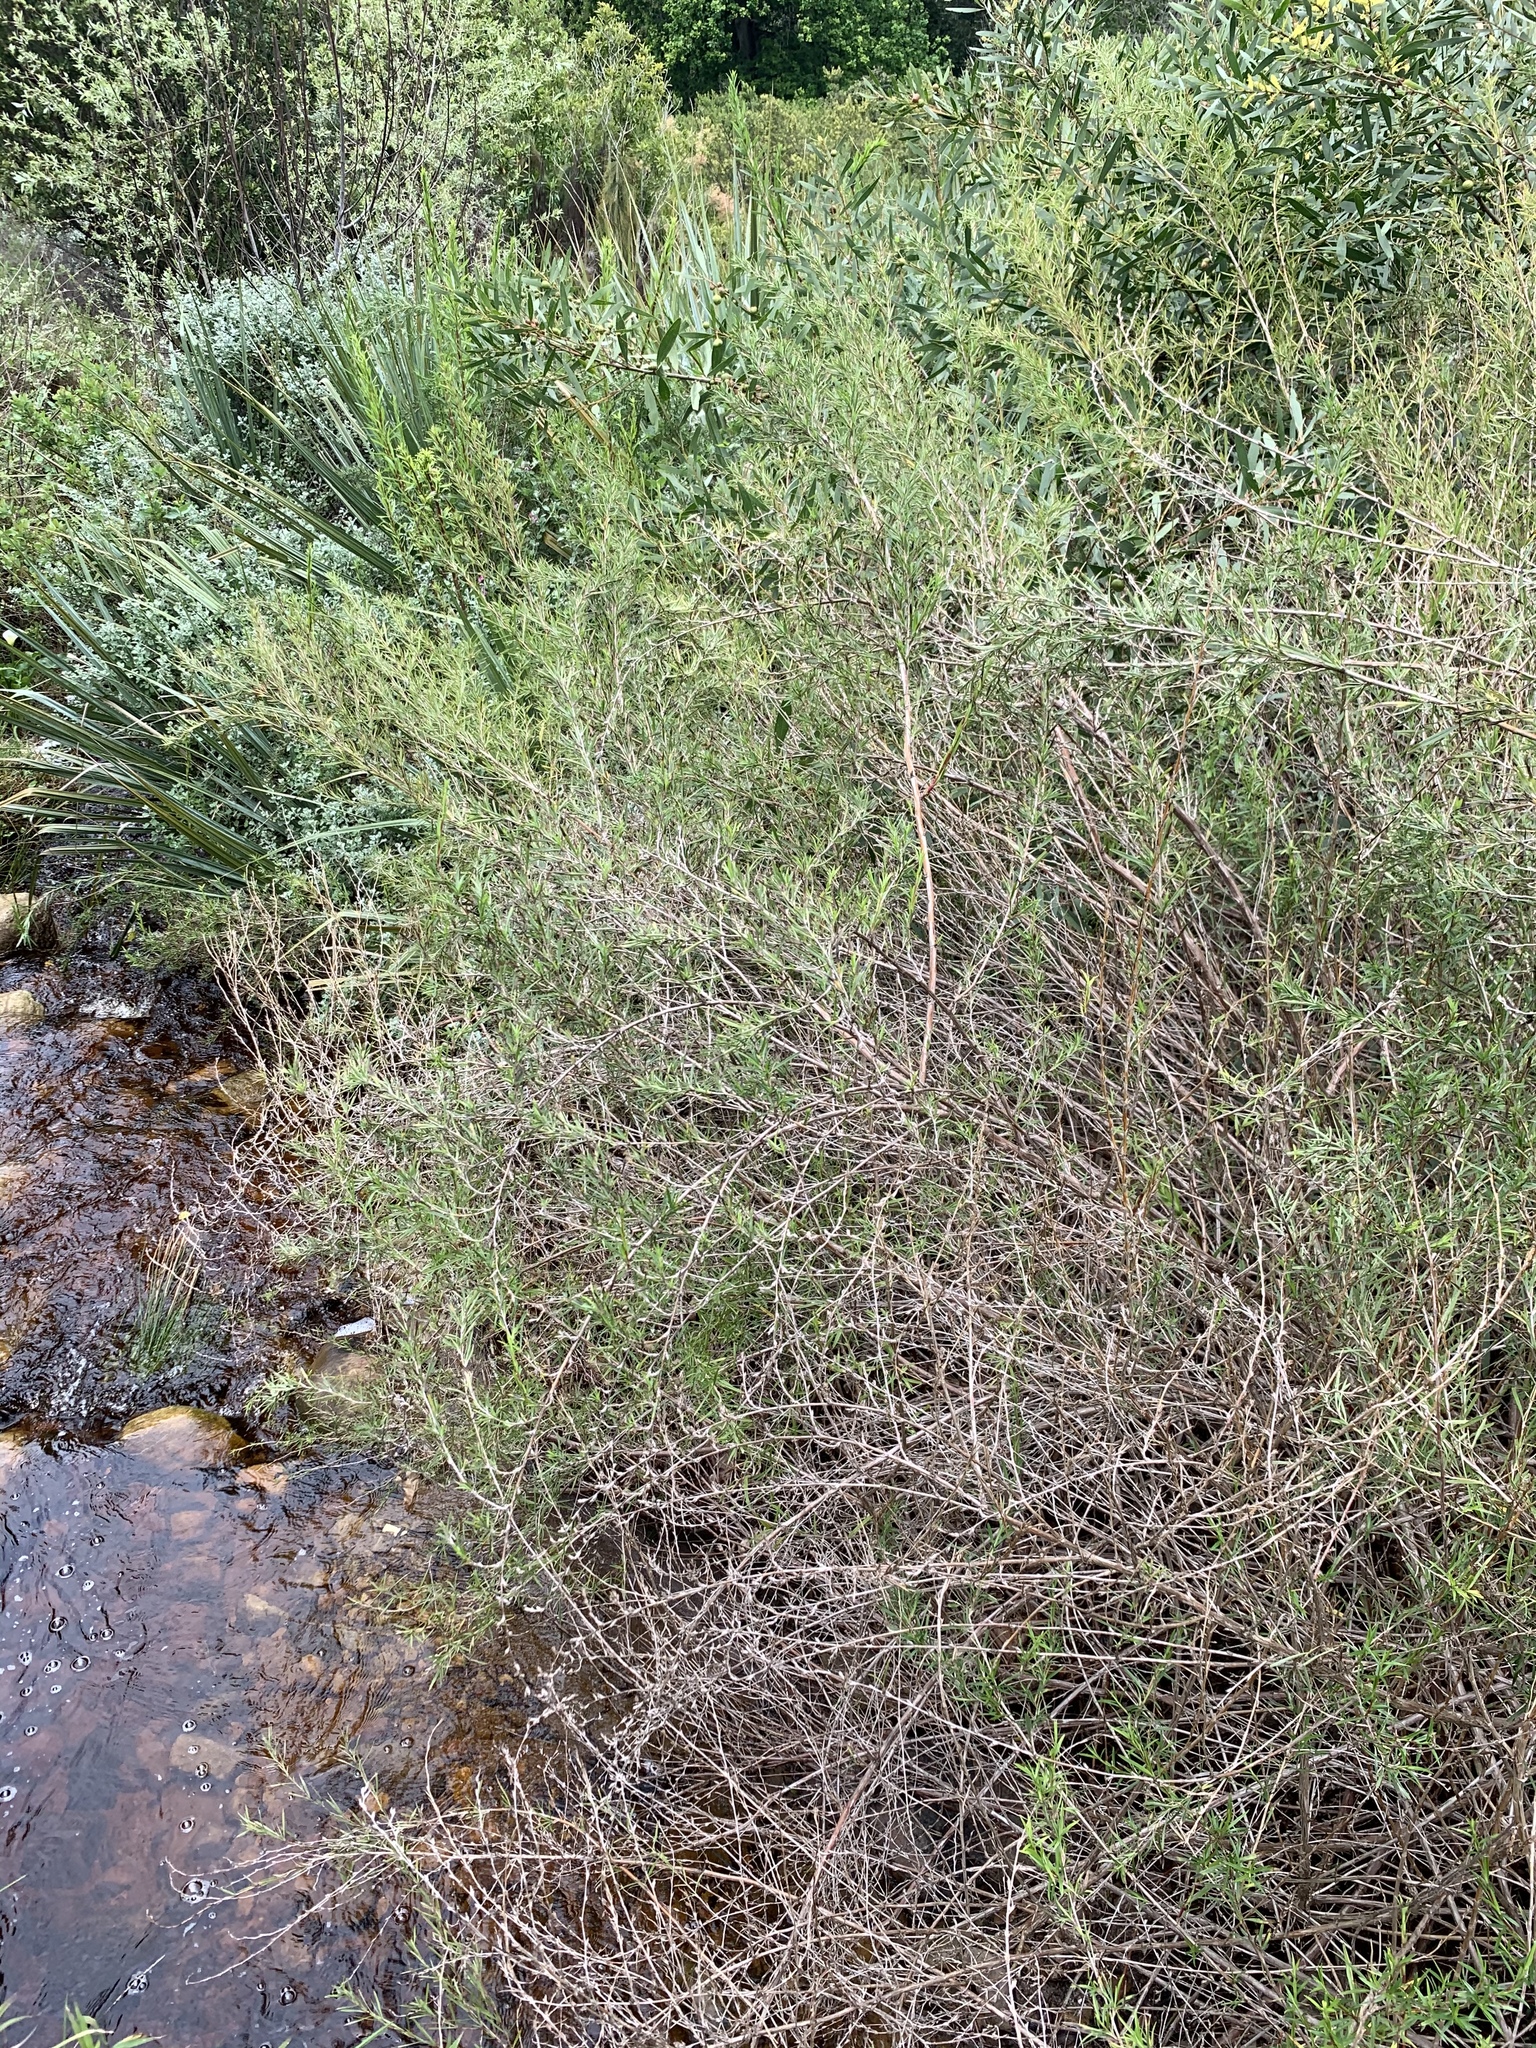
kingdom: Plantae
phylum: Tracheophyta
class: Magnoliopsida
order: Rosales
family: Rosaceae
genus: Cliffortia
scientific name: Cliffortia strobilifera
